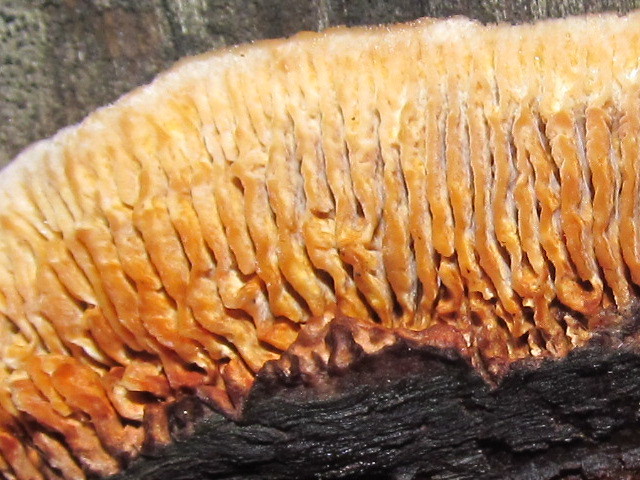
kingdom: Fungi
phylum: Basidiomycota
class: Agaricomycetes
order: Gloeophyllales
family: Gloeophyllaceae
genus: Gloeophyllum
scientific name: Gloeophyllum sepiarium
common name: Conifer mazegill
